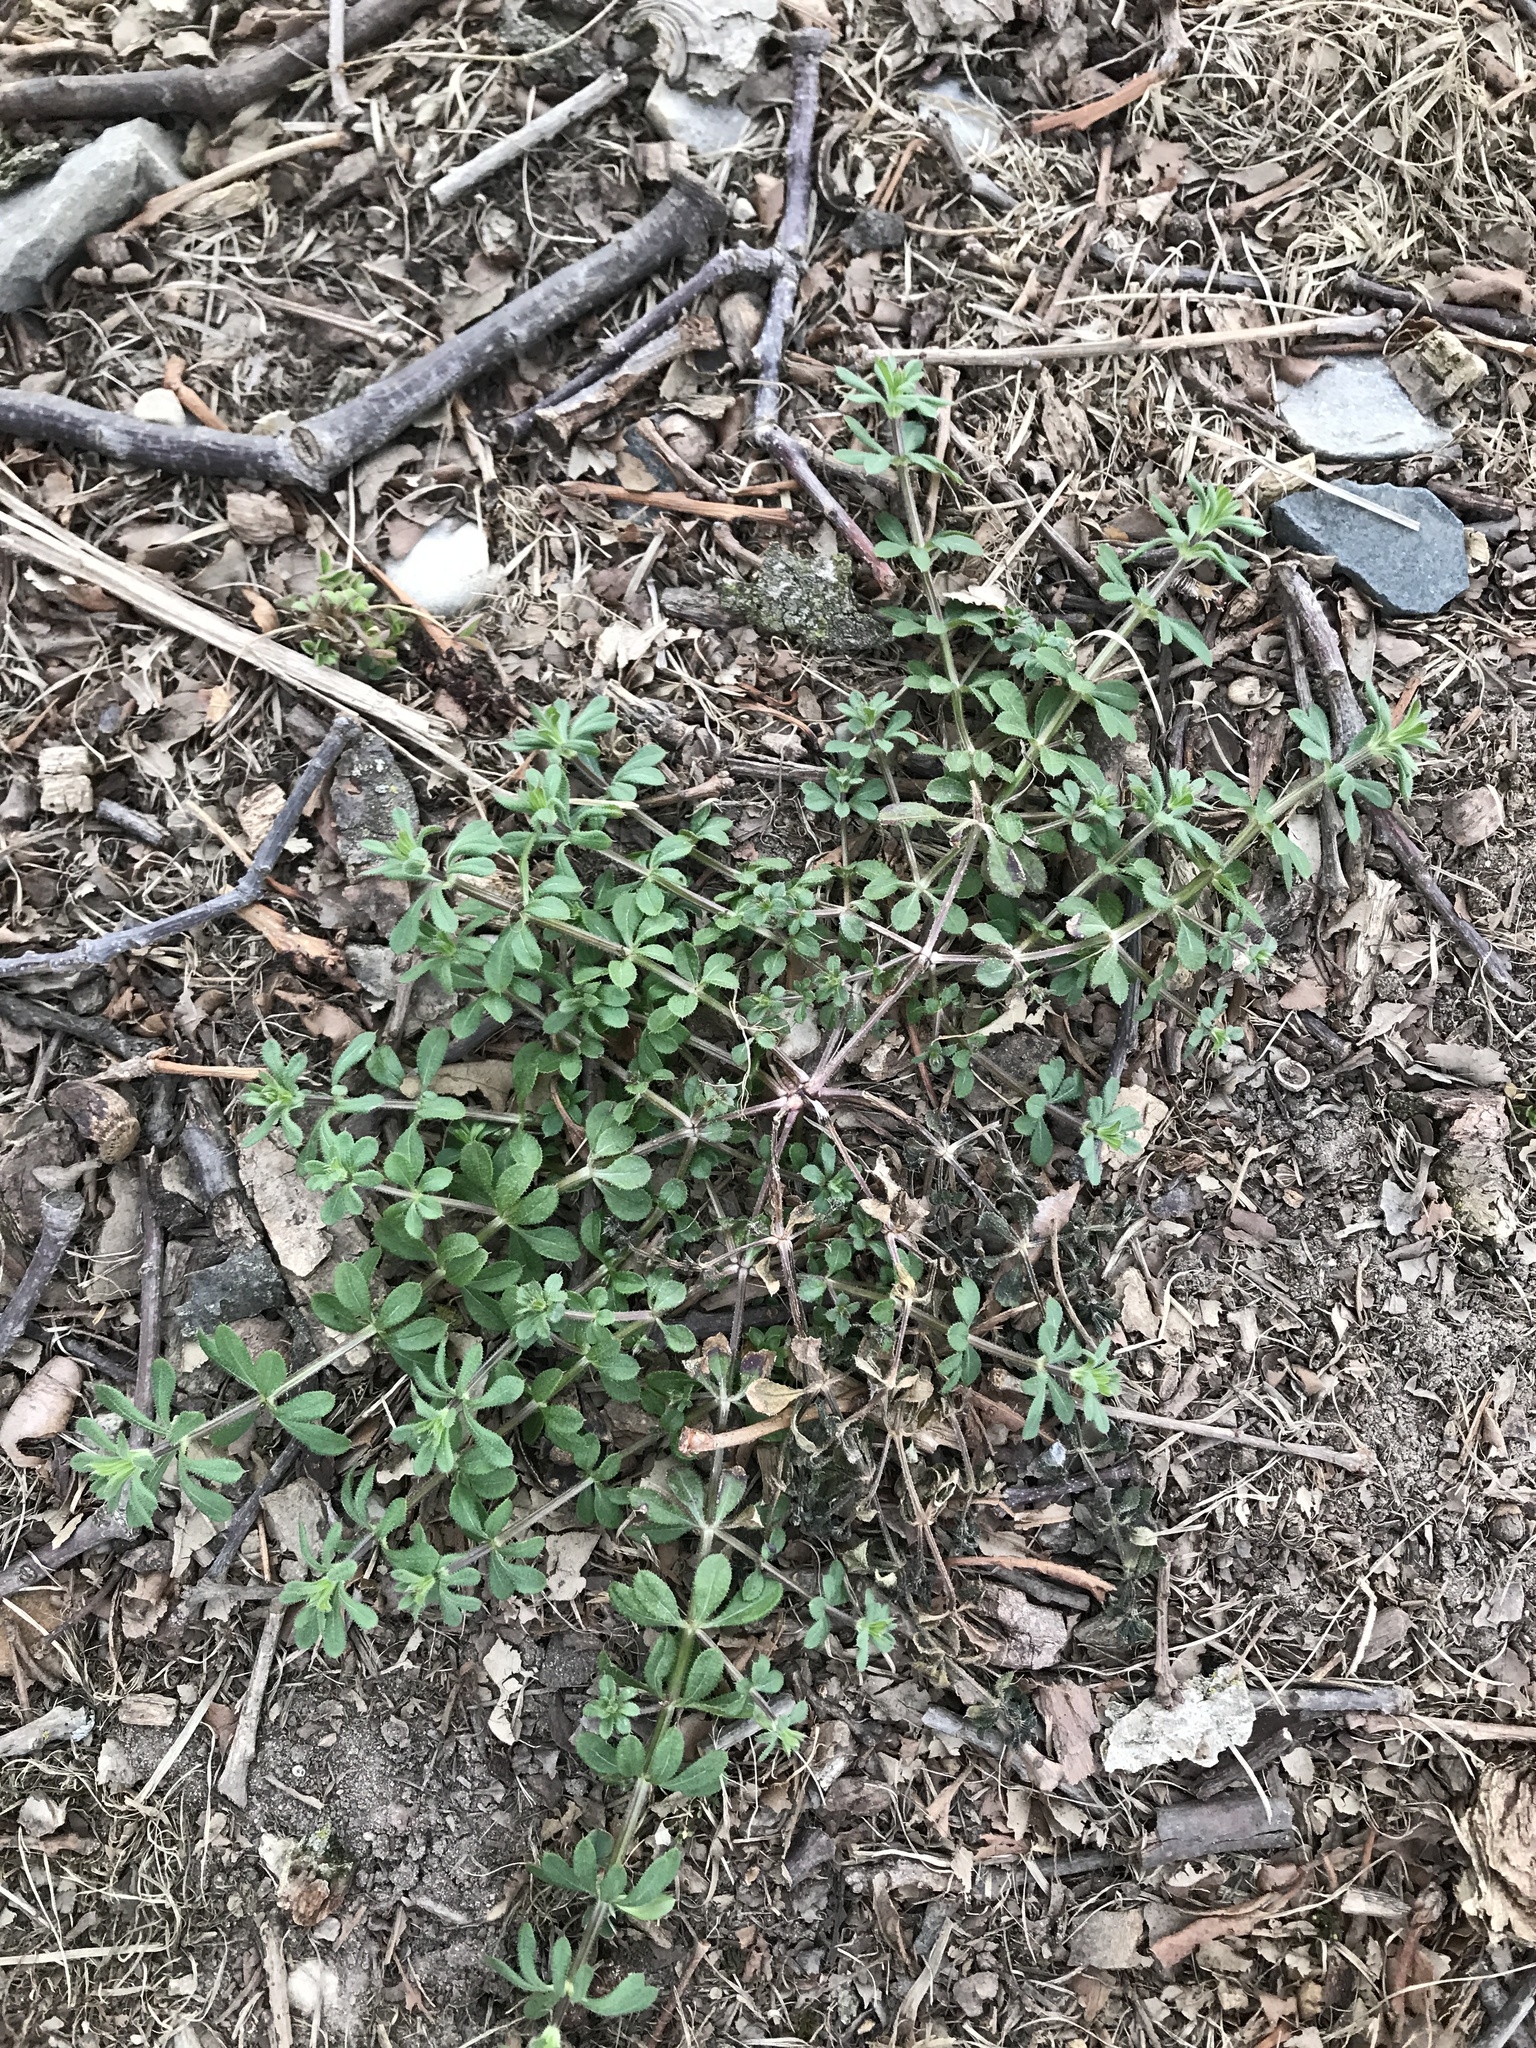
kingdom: Plantae
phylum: Tracheophyta
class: Magnoliopsida
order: Gentianales
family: Rubiaceae
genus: Galium
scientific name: Galium aparine
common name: Cleavers
